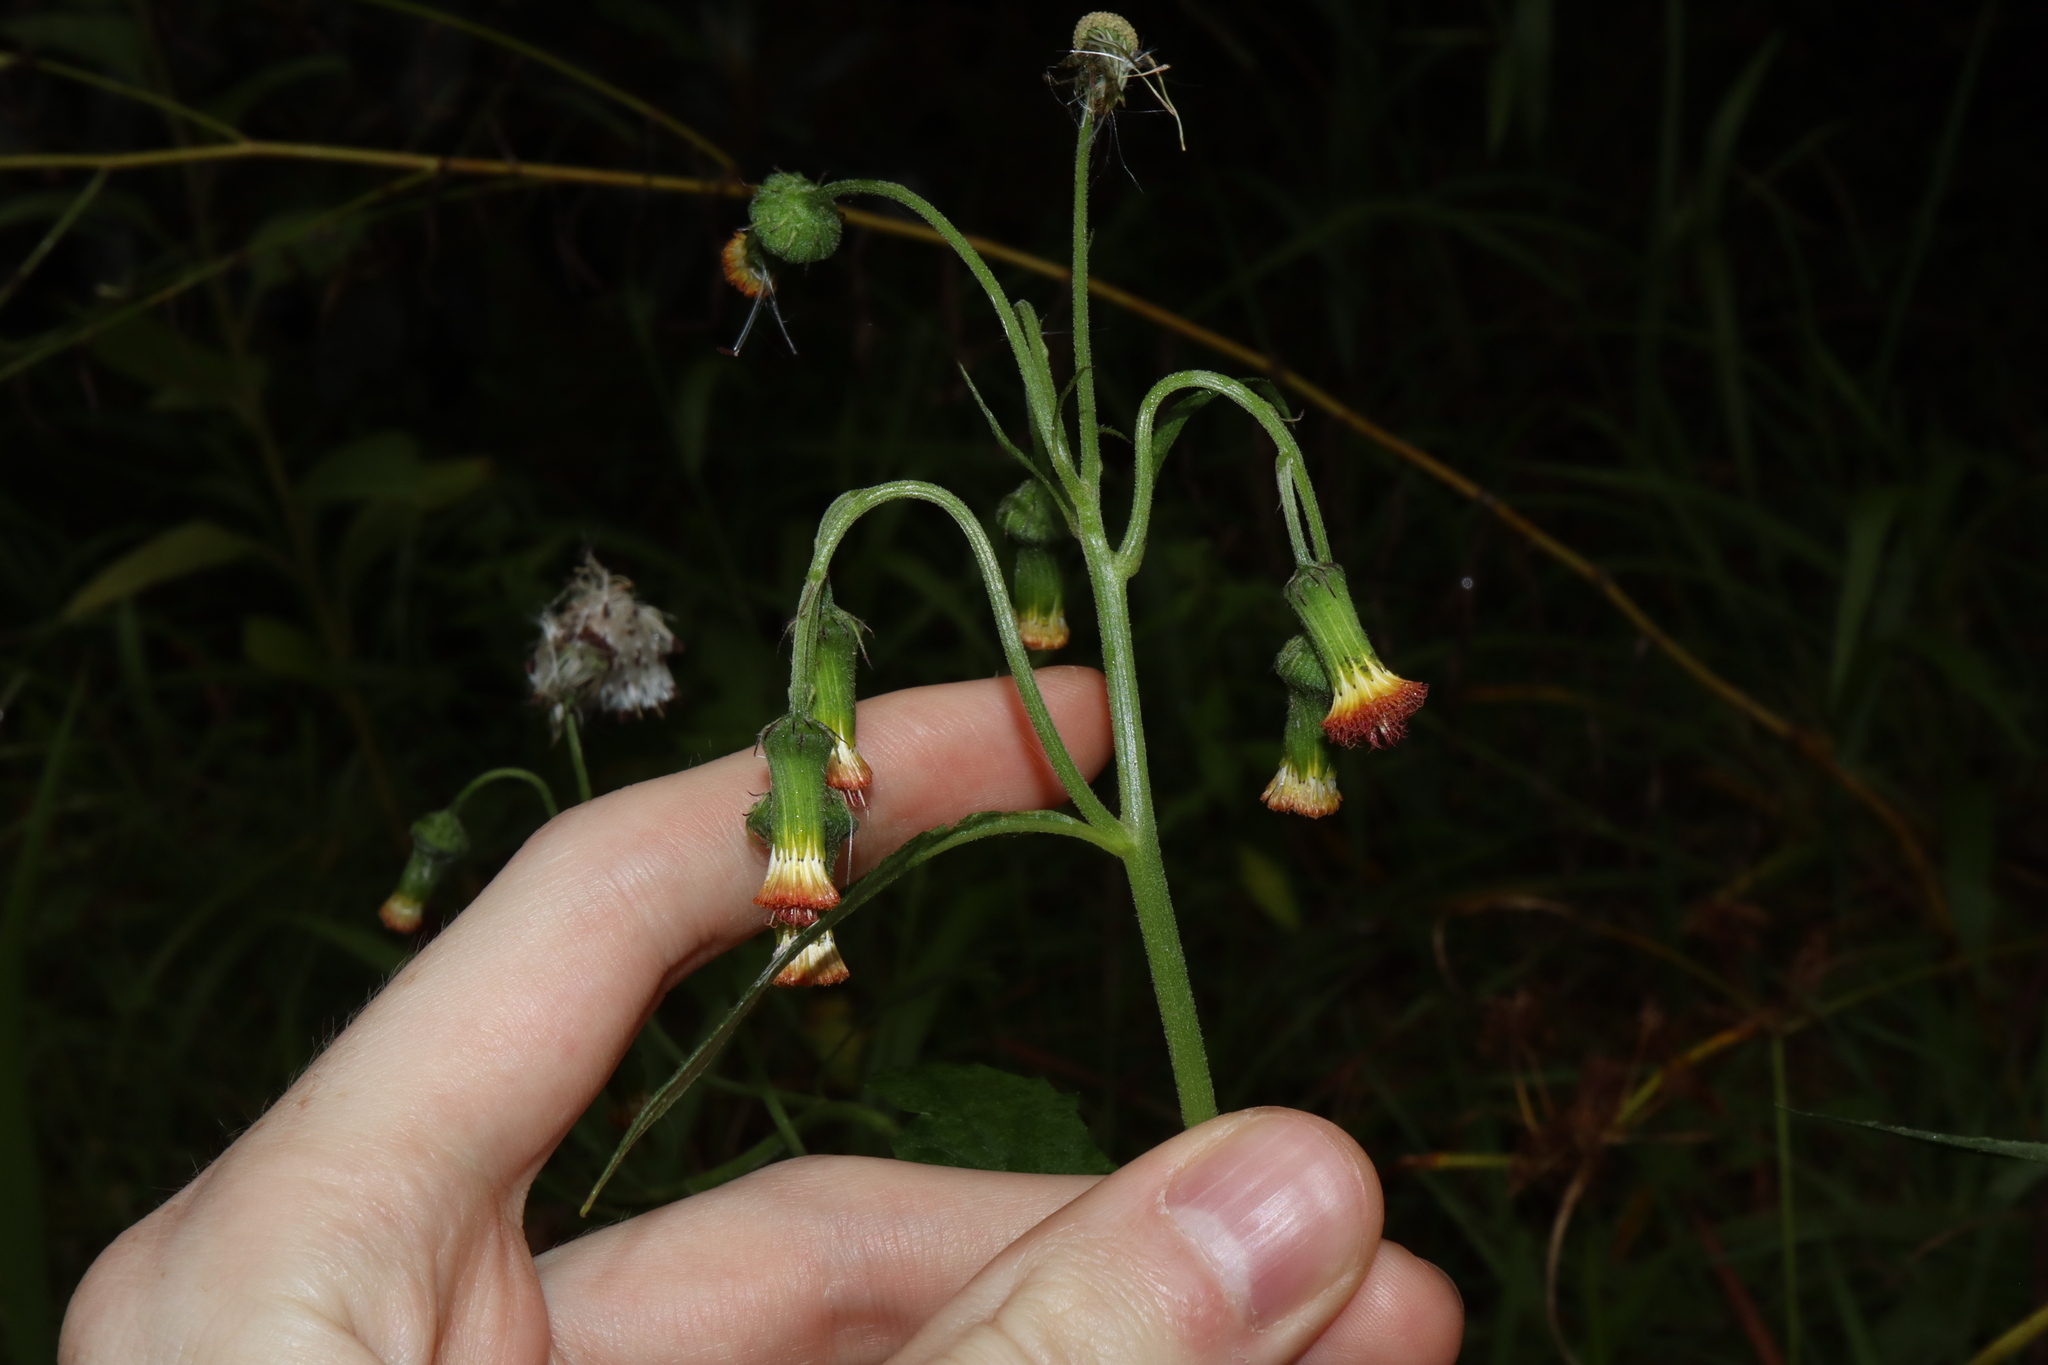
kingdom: Plantae
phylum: Tracheophyta
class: Magnoliopsida
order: Asterales
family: Asteraceae
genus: Crassocephalum
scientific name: Crassocephalum crepidioides
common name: Redflower ragleaf
